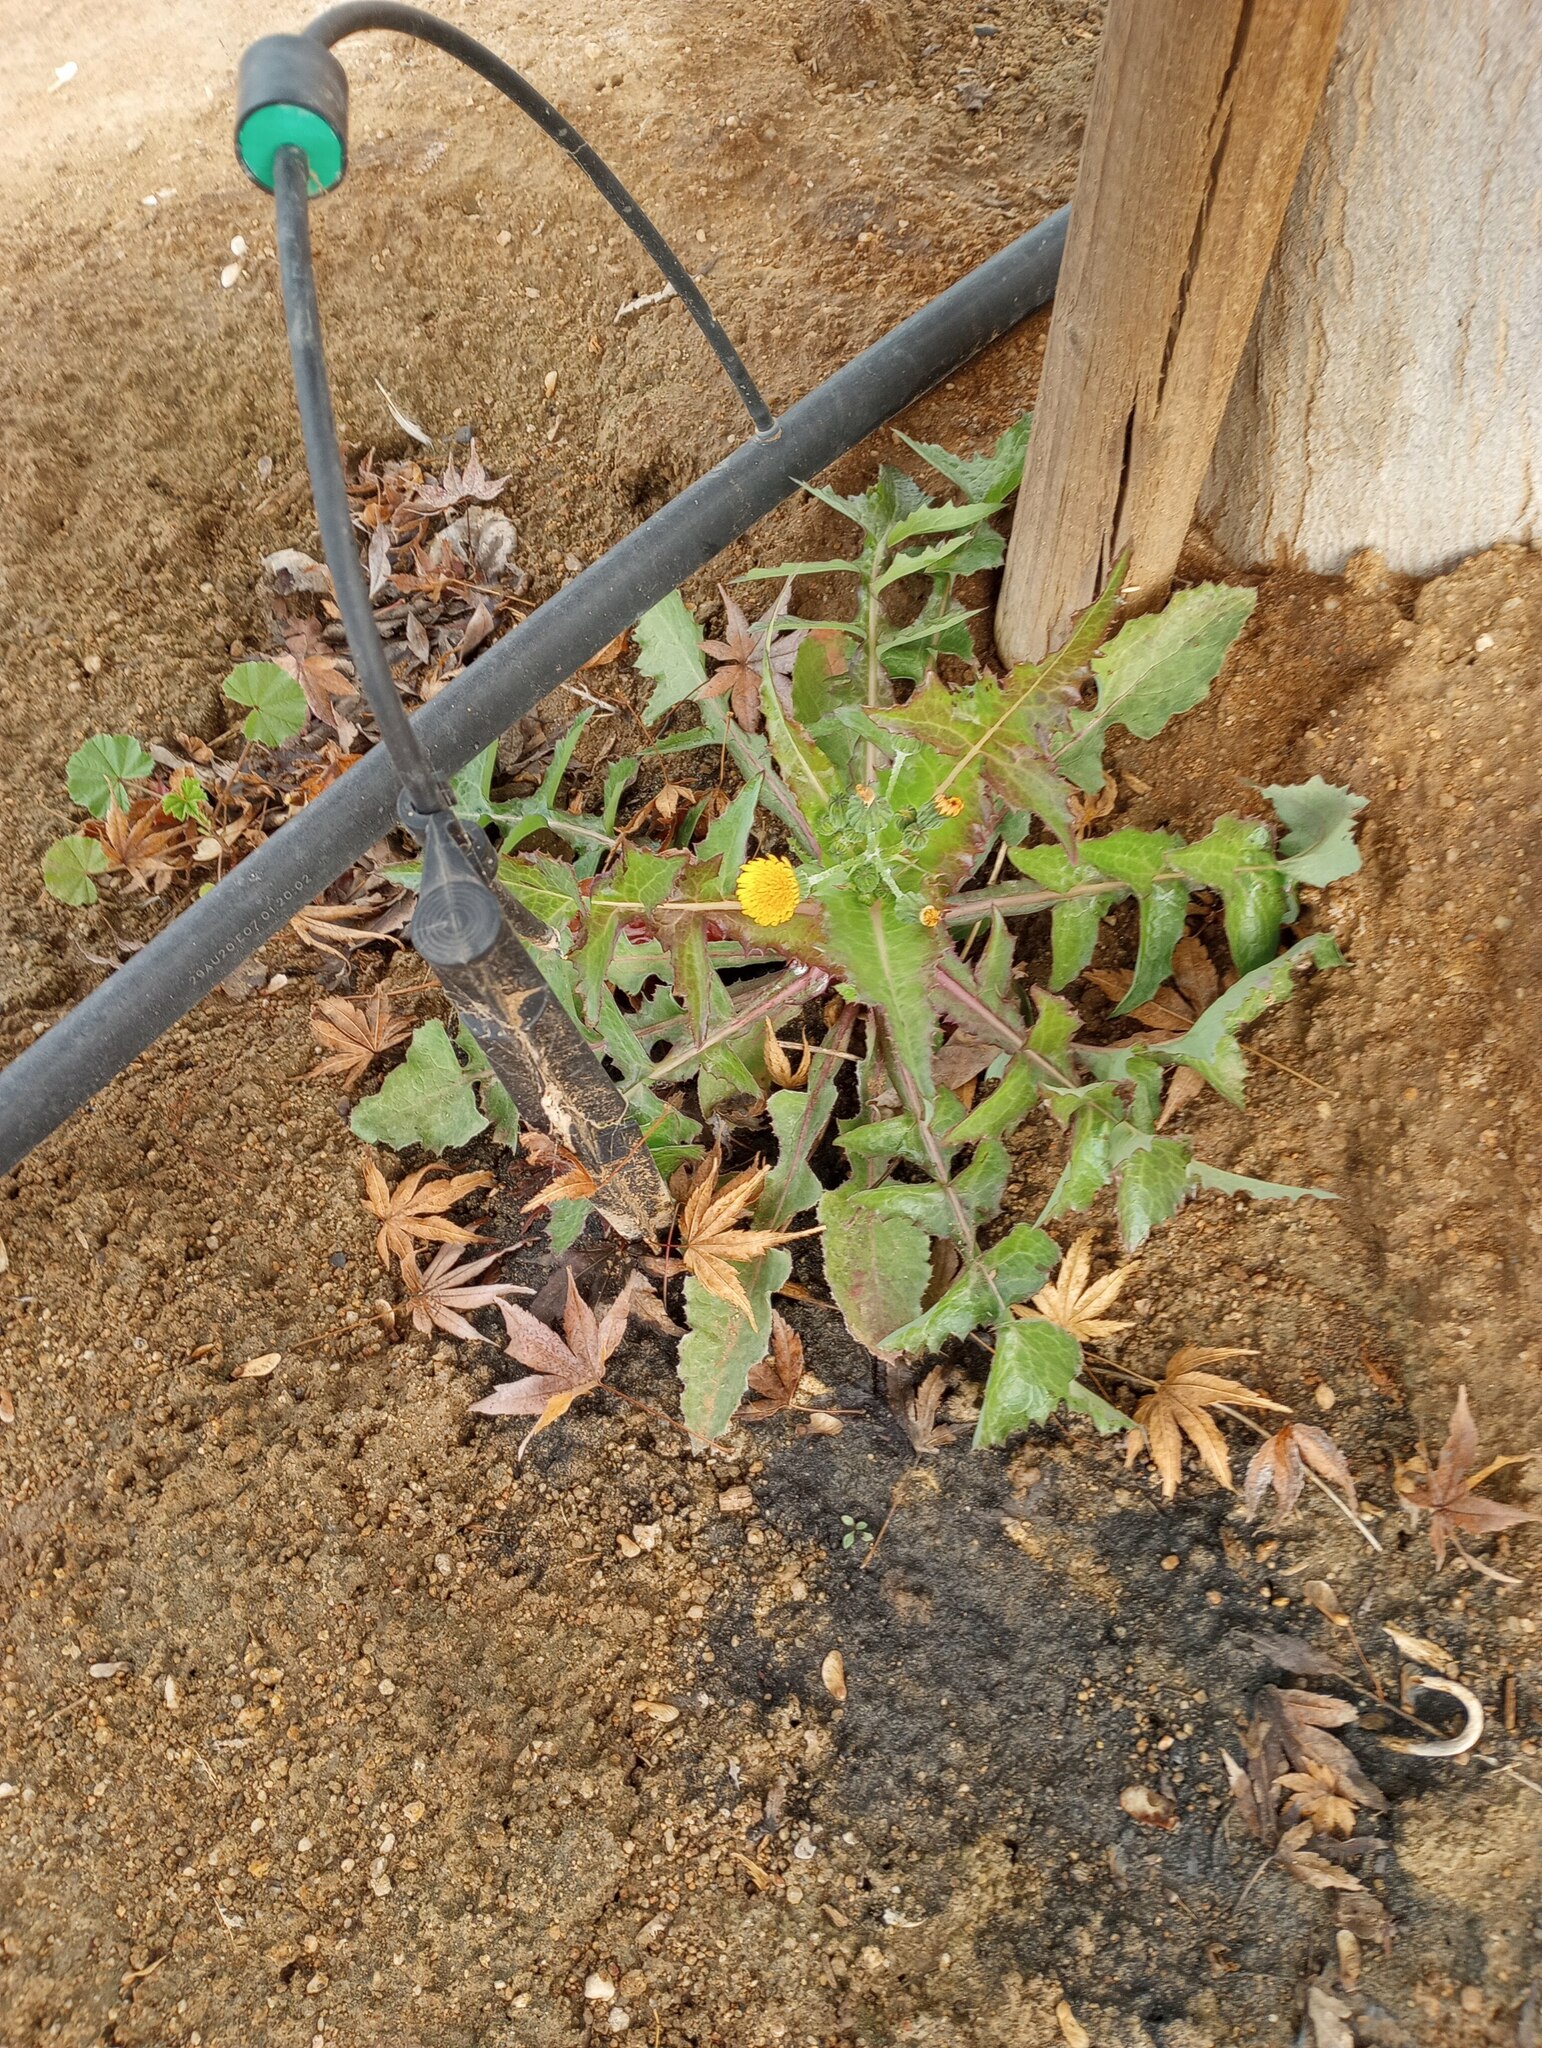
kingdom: Plantae
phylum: Tracheophyta
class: Magnoliopsida
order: Asterales
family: Asteraceae
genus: Sonchus
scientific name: Sonchus oleraceus
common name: Common sowthistle
